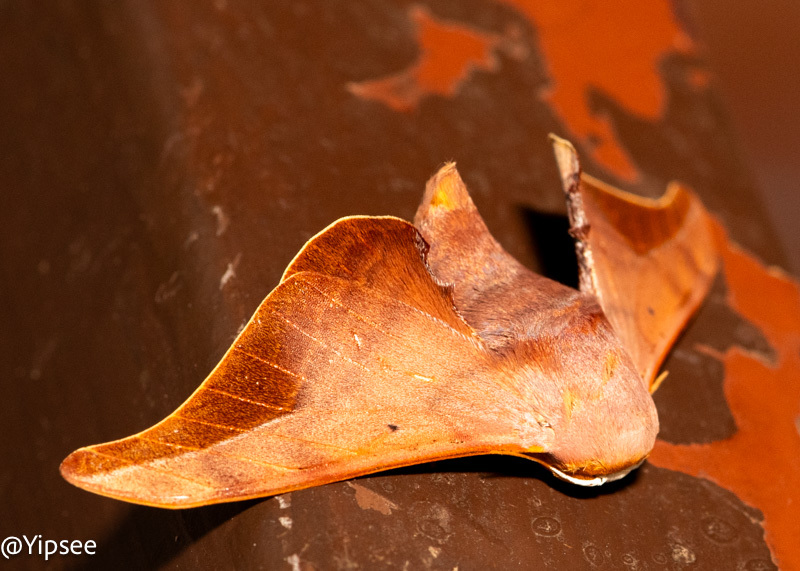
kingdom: Animalia
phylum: Arthropoda
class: Insecta
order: Lepidoptera
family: Endromidae
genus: Comparmustilia
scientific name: Comparmustilia sphingiformis
